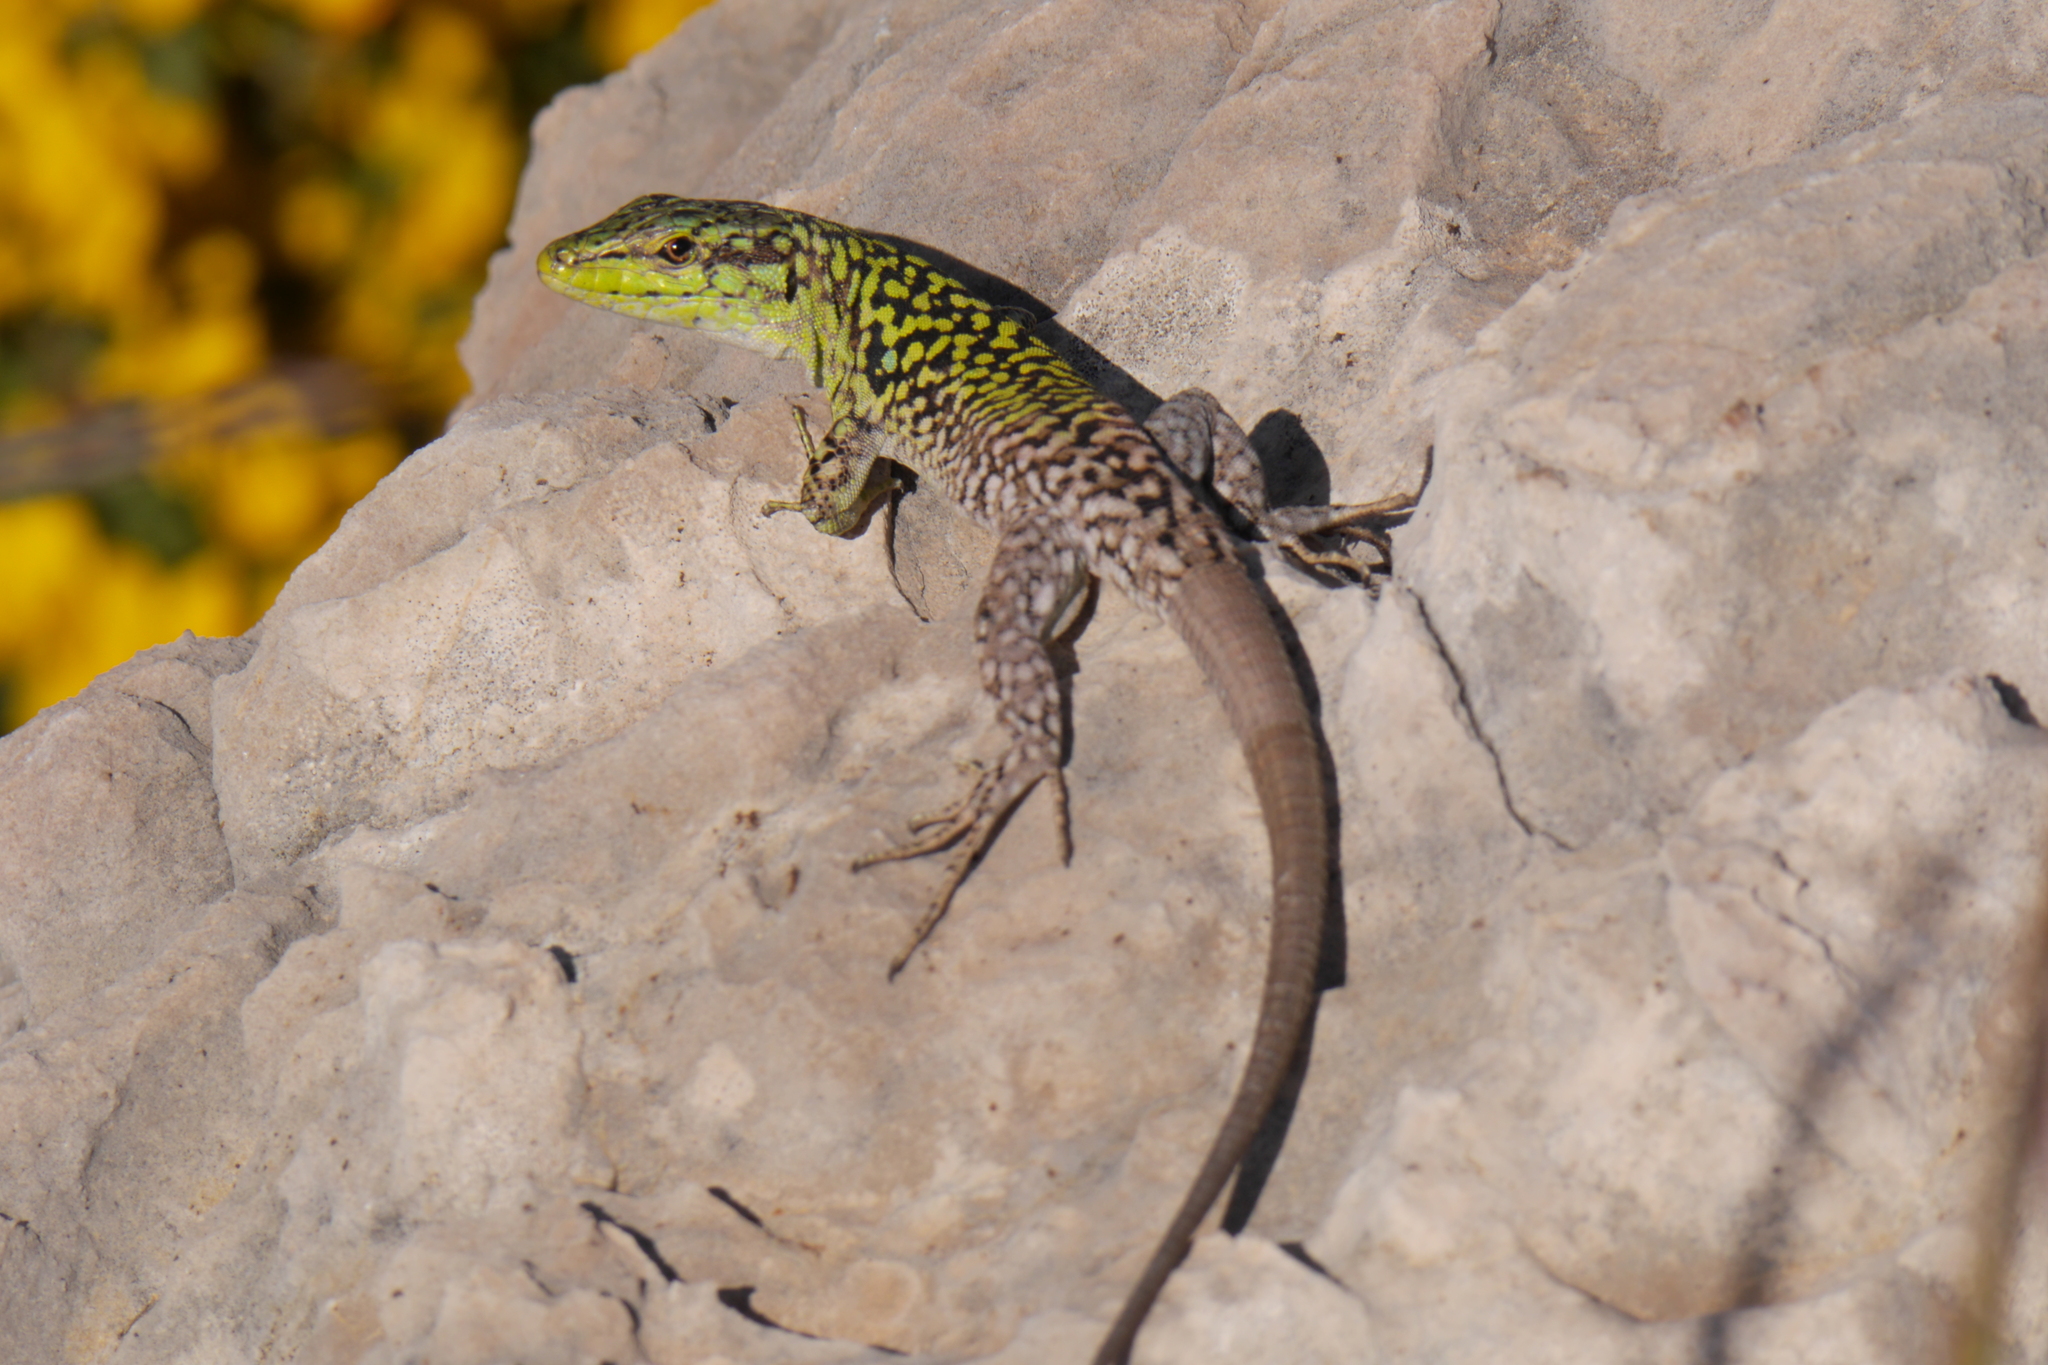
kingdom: Animalia
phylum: Chordata
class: Squamata
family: Lacertidae
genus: Podarcis
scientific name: Podarcis siculus
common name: Italian wall lizard
